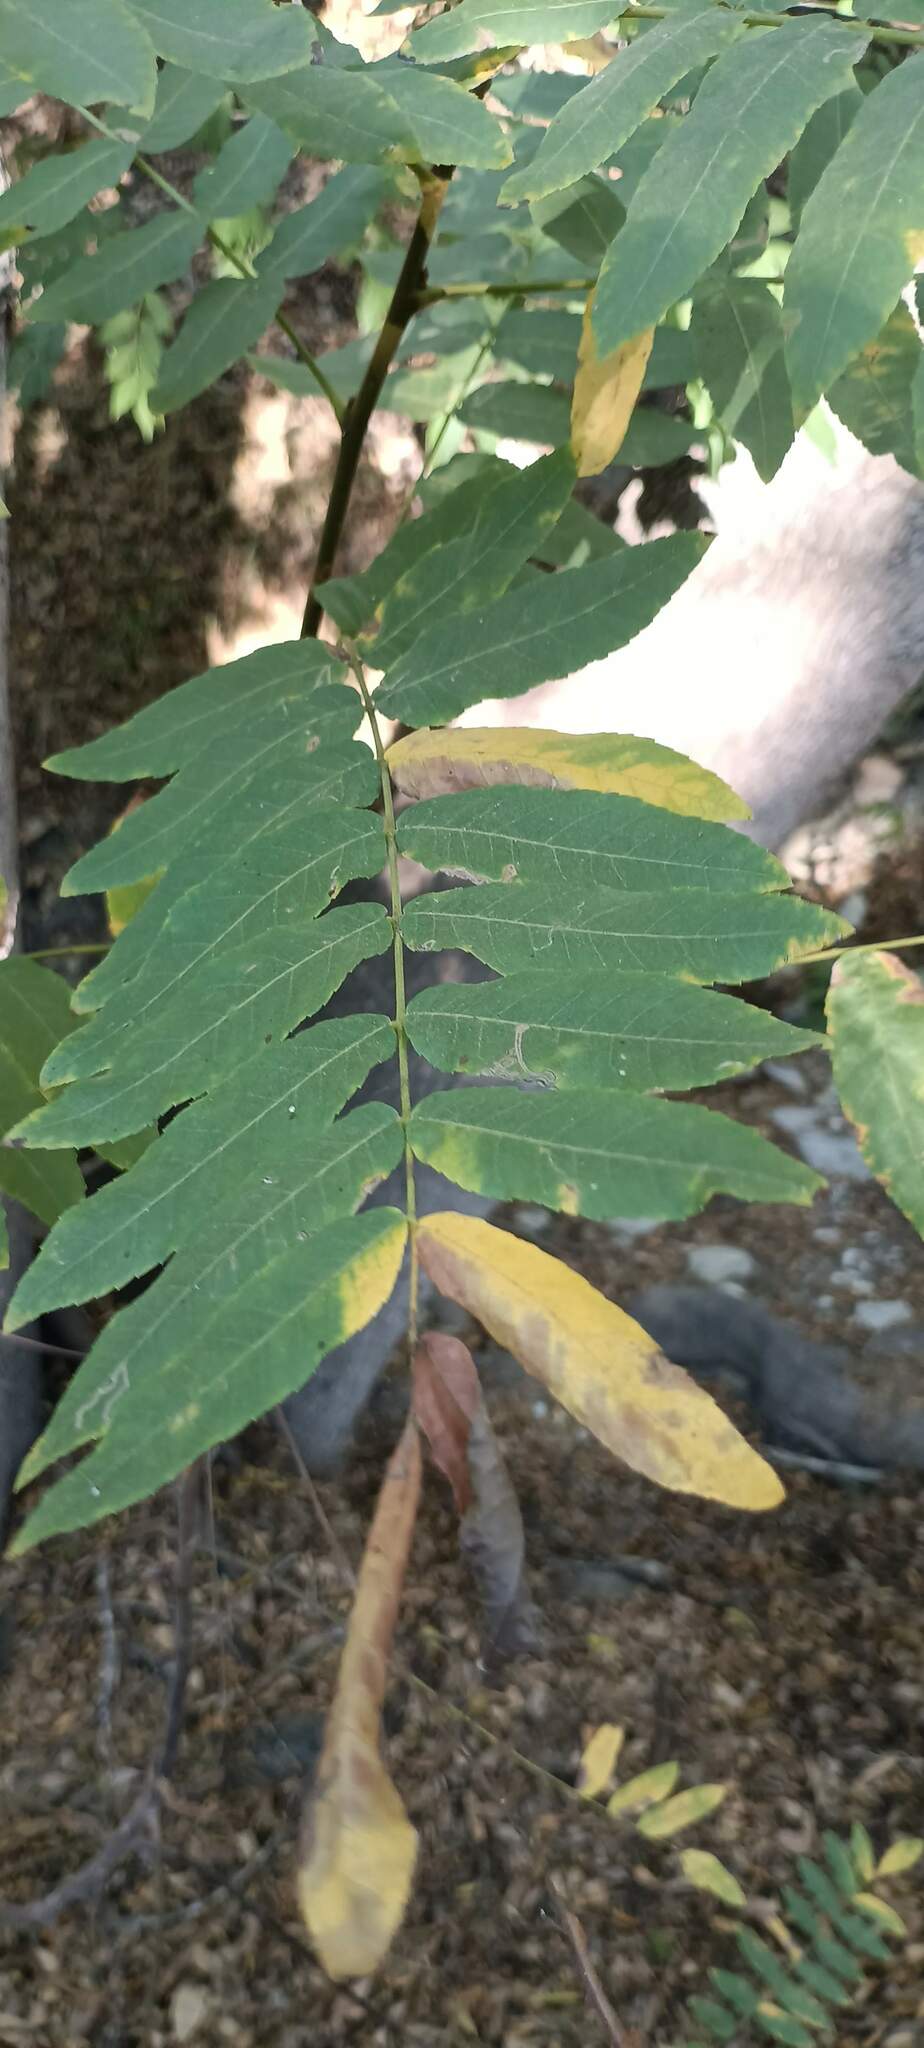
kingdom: Plantae
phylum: Tracheophyta
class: Magnoliopsida
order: Fagales
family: Juglandaceae
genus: Juglans
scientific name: Juglans californica
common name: Southern california black walnut
